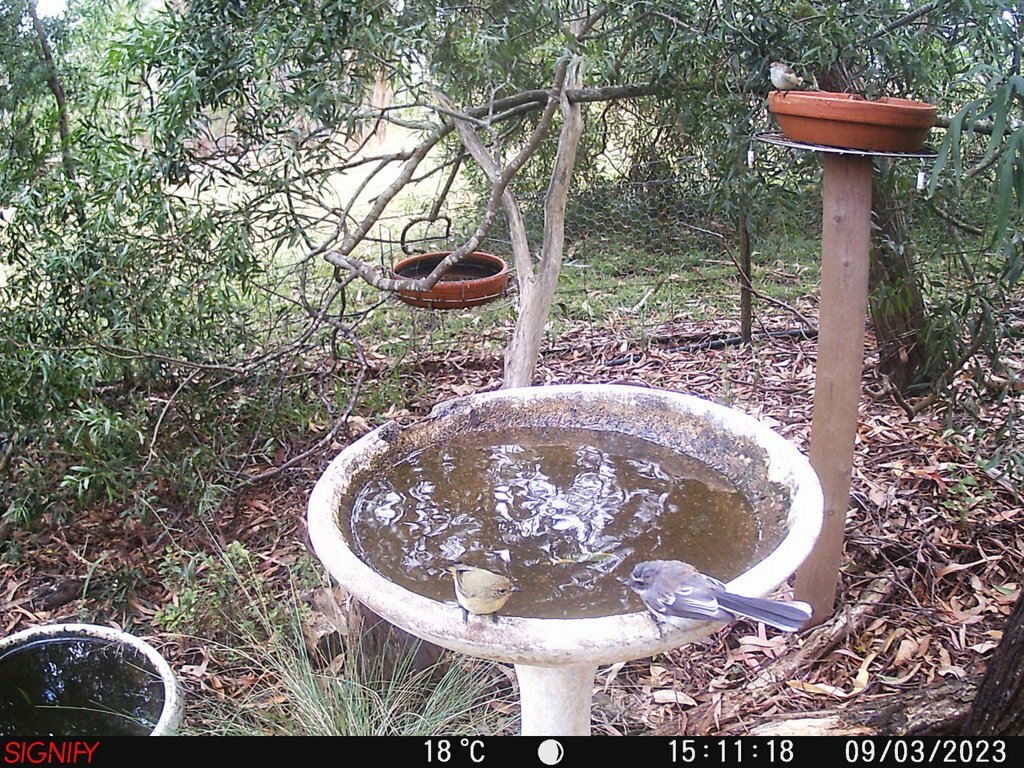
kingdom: Animalia
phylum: Chordata
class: Aves
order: Passeriformes
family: Rhipiduridae
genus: Rhipidura
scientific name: Rhipidura albiscapa
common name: Grey fantail
